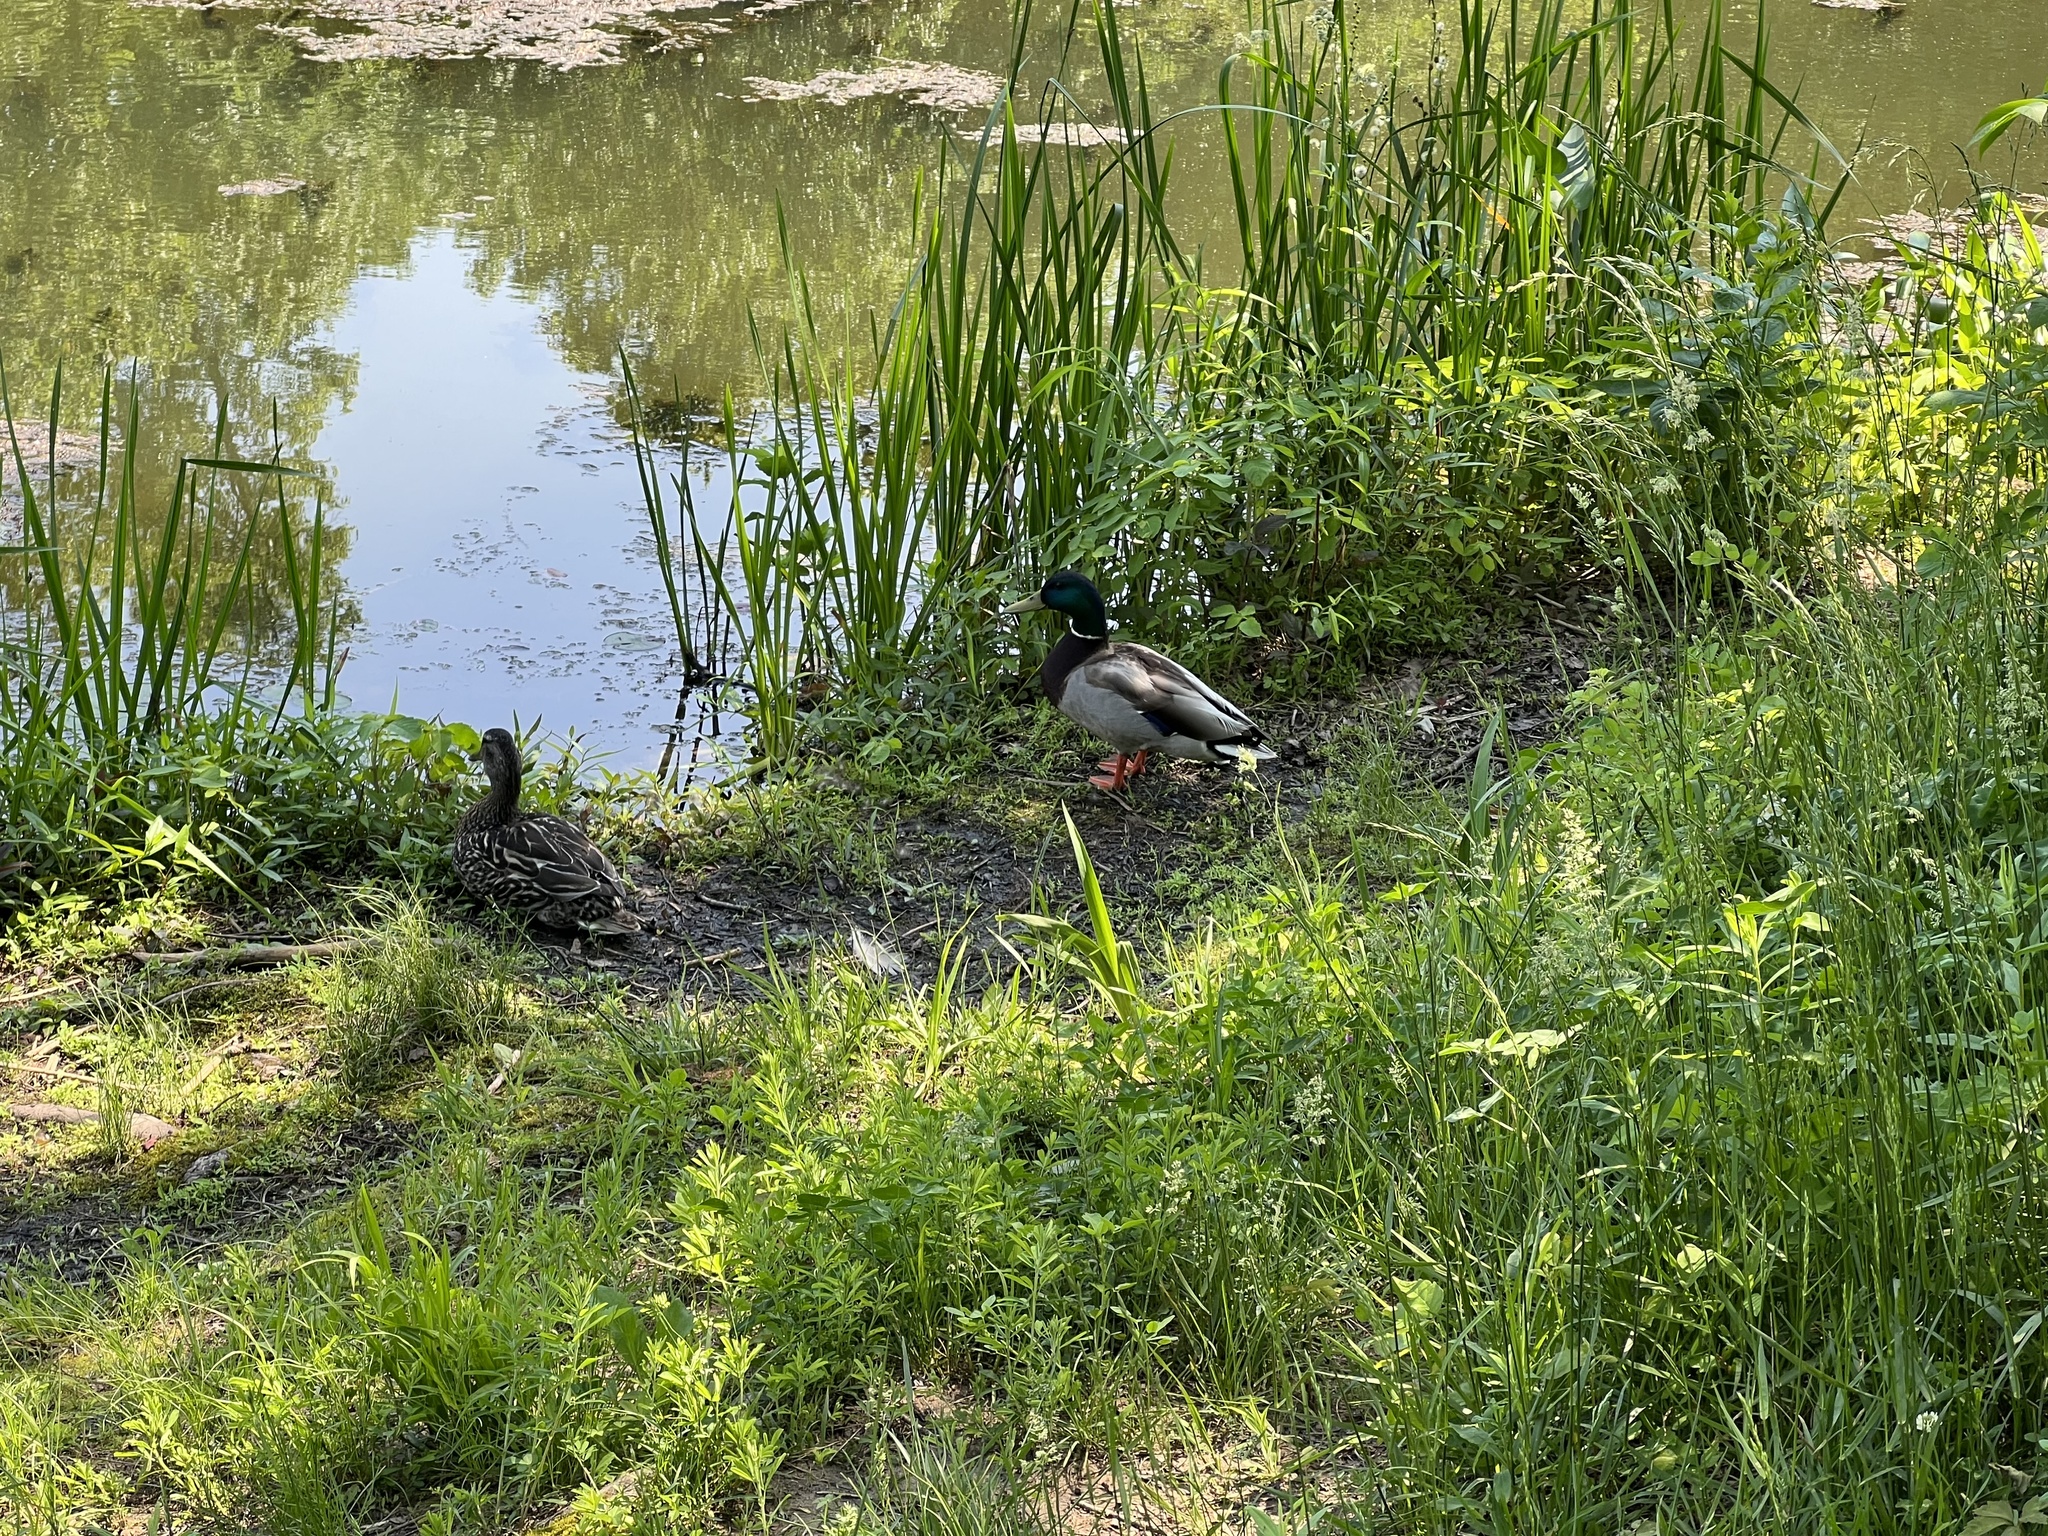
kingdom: Animalia
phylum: Chordata
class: Aves
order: Anseriformes
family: Anatidae
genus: Anas
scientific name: Anas platyrhynchos
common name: Mallard
